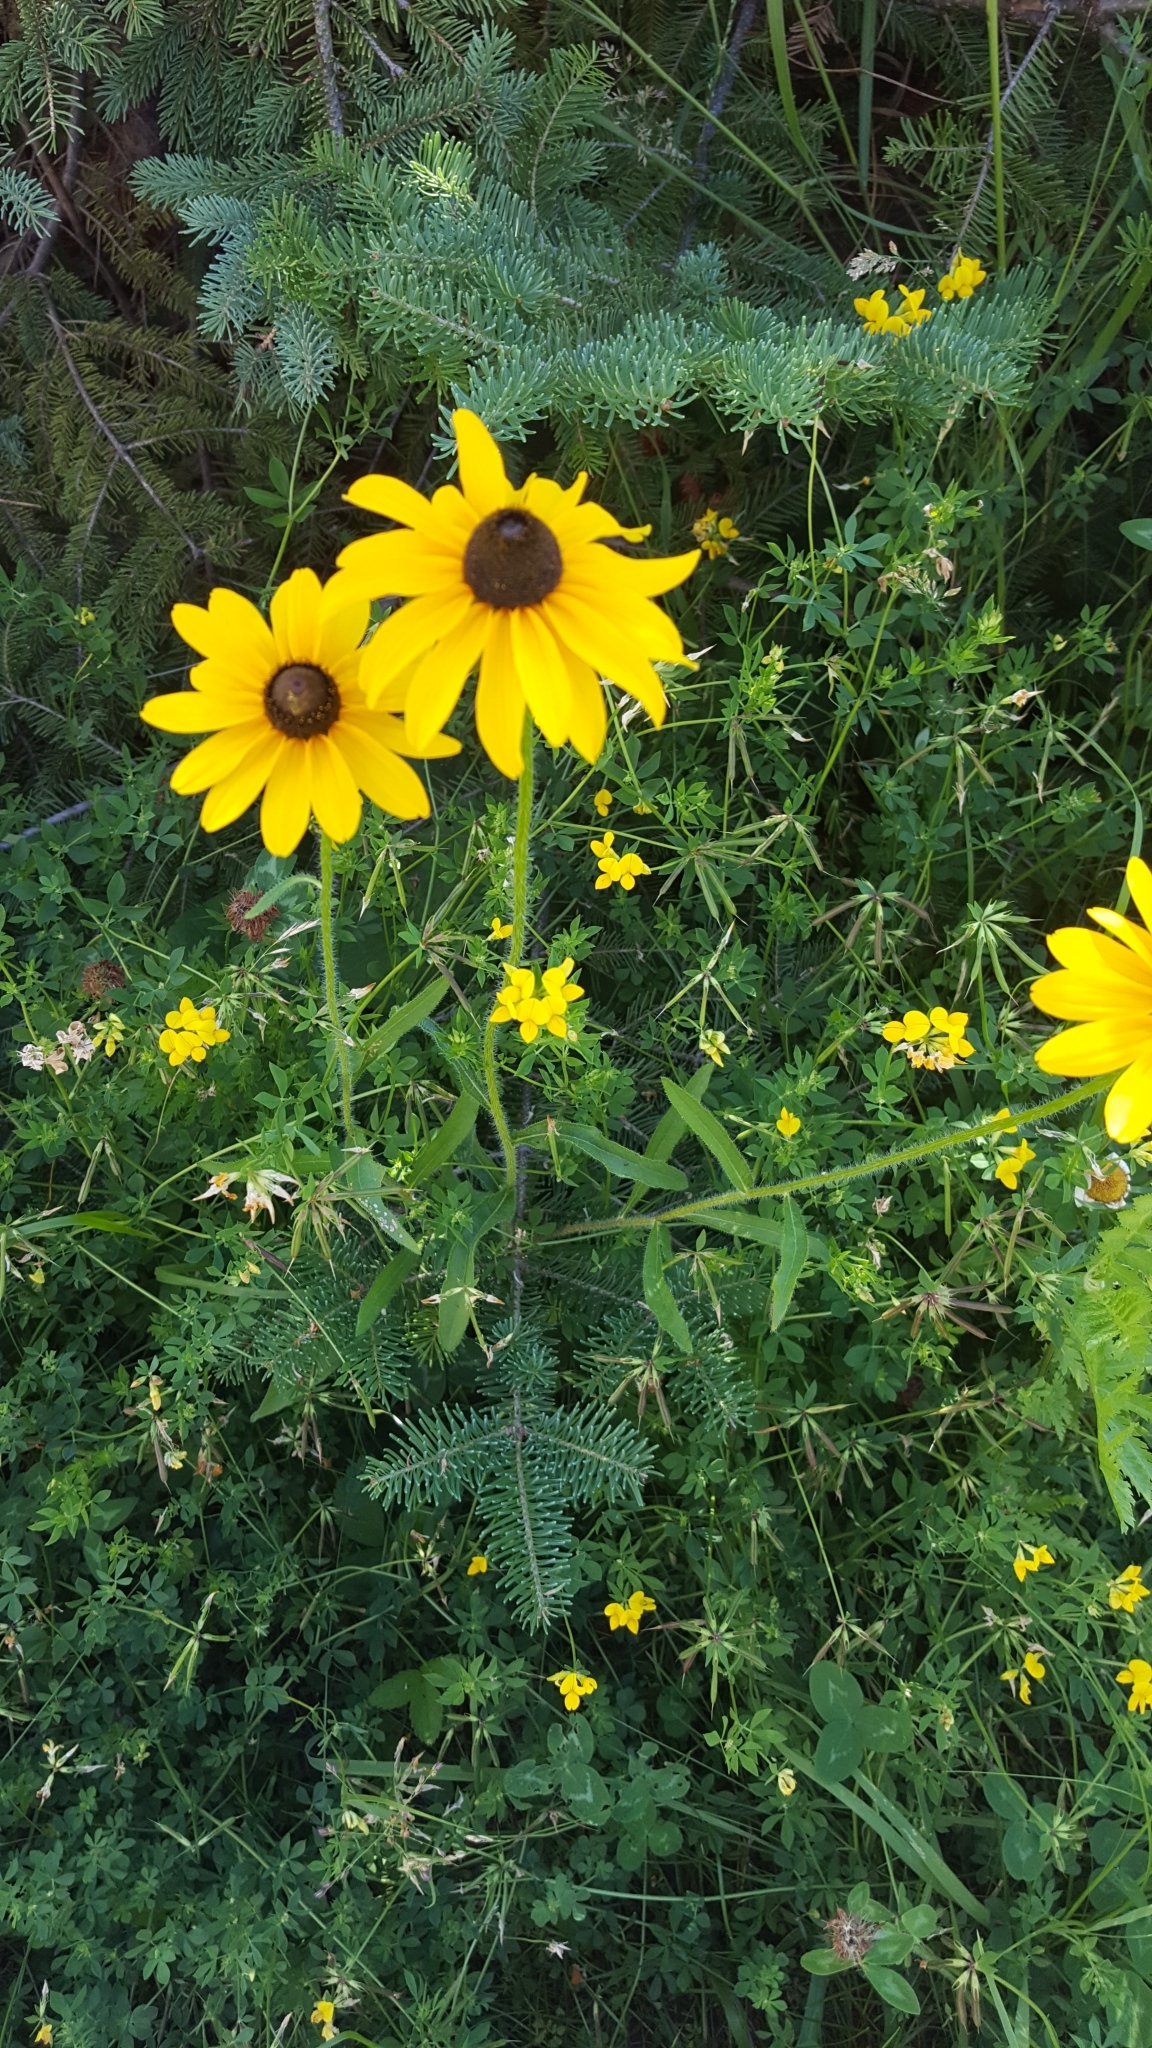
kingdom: Plantae
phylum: Tracheophyta
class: Magnoliopsida
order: Asterales
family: Asteraceae
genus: Rudbeckia
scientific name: Rudbeckia hirta
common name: Black-eyed-susan
